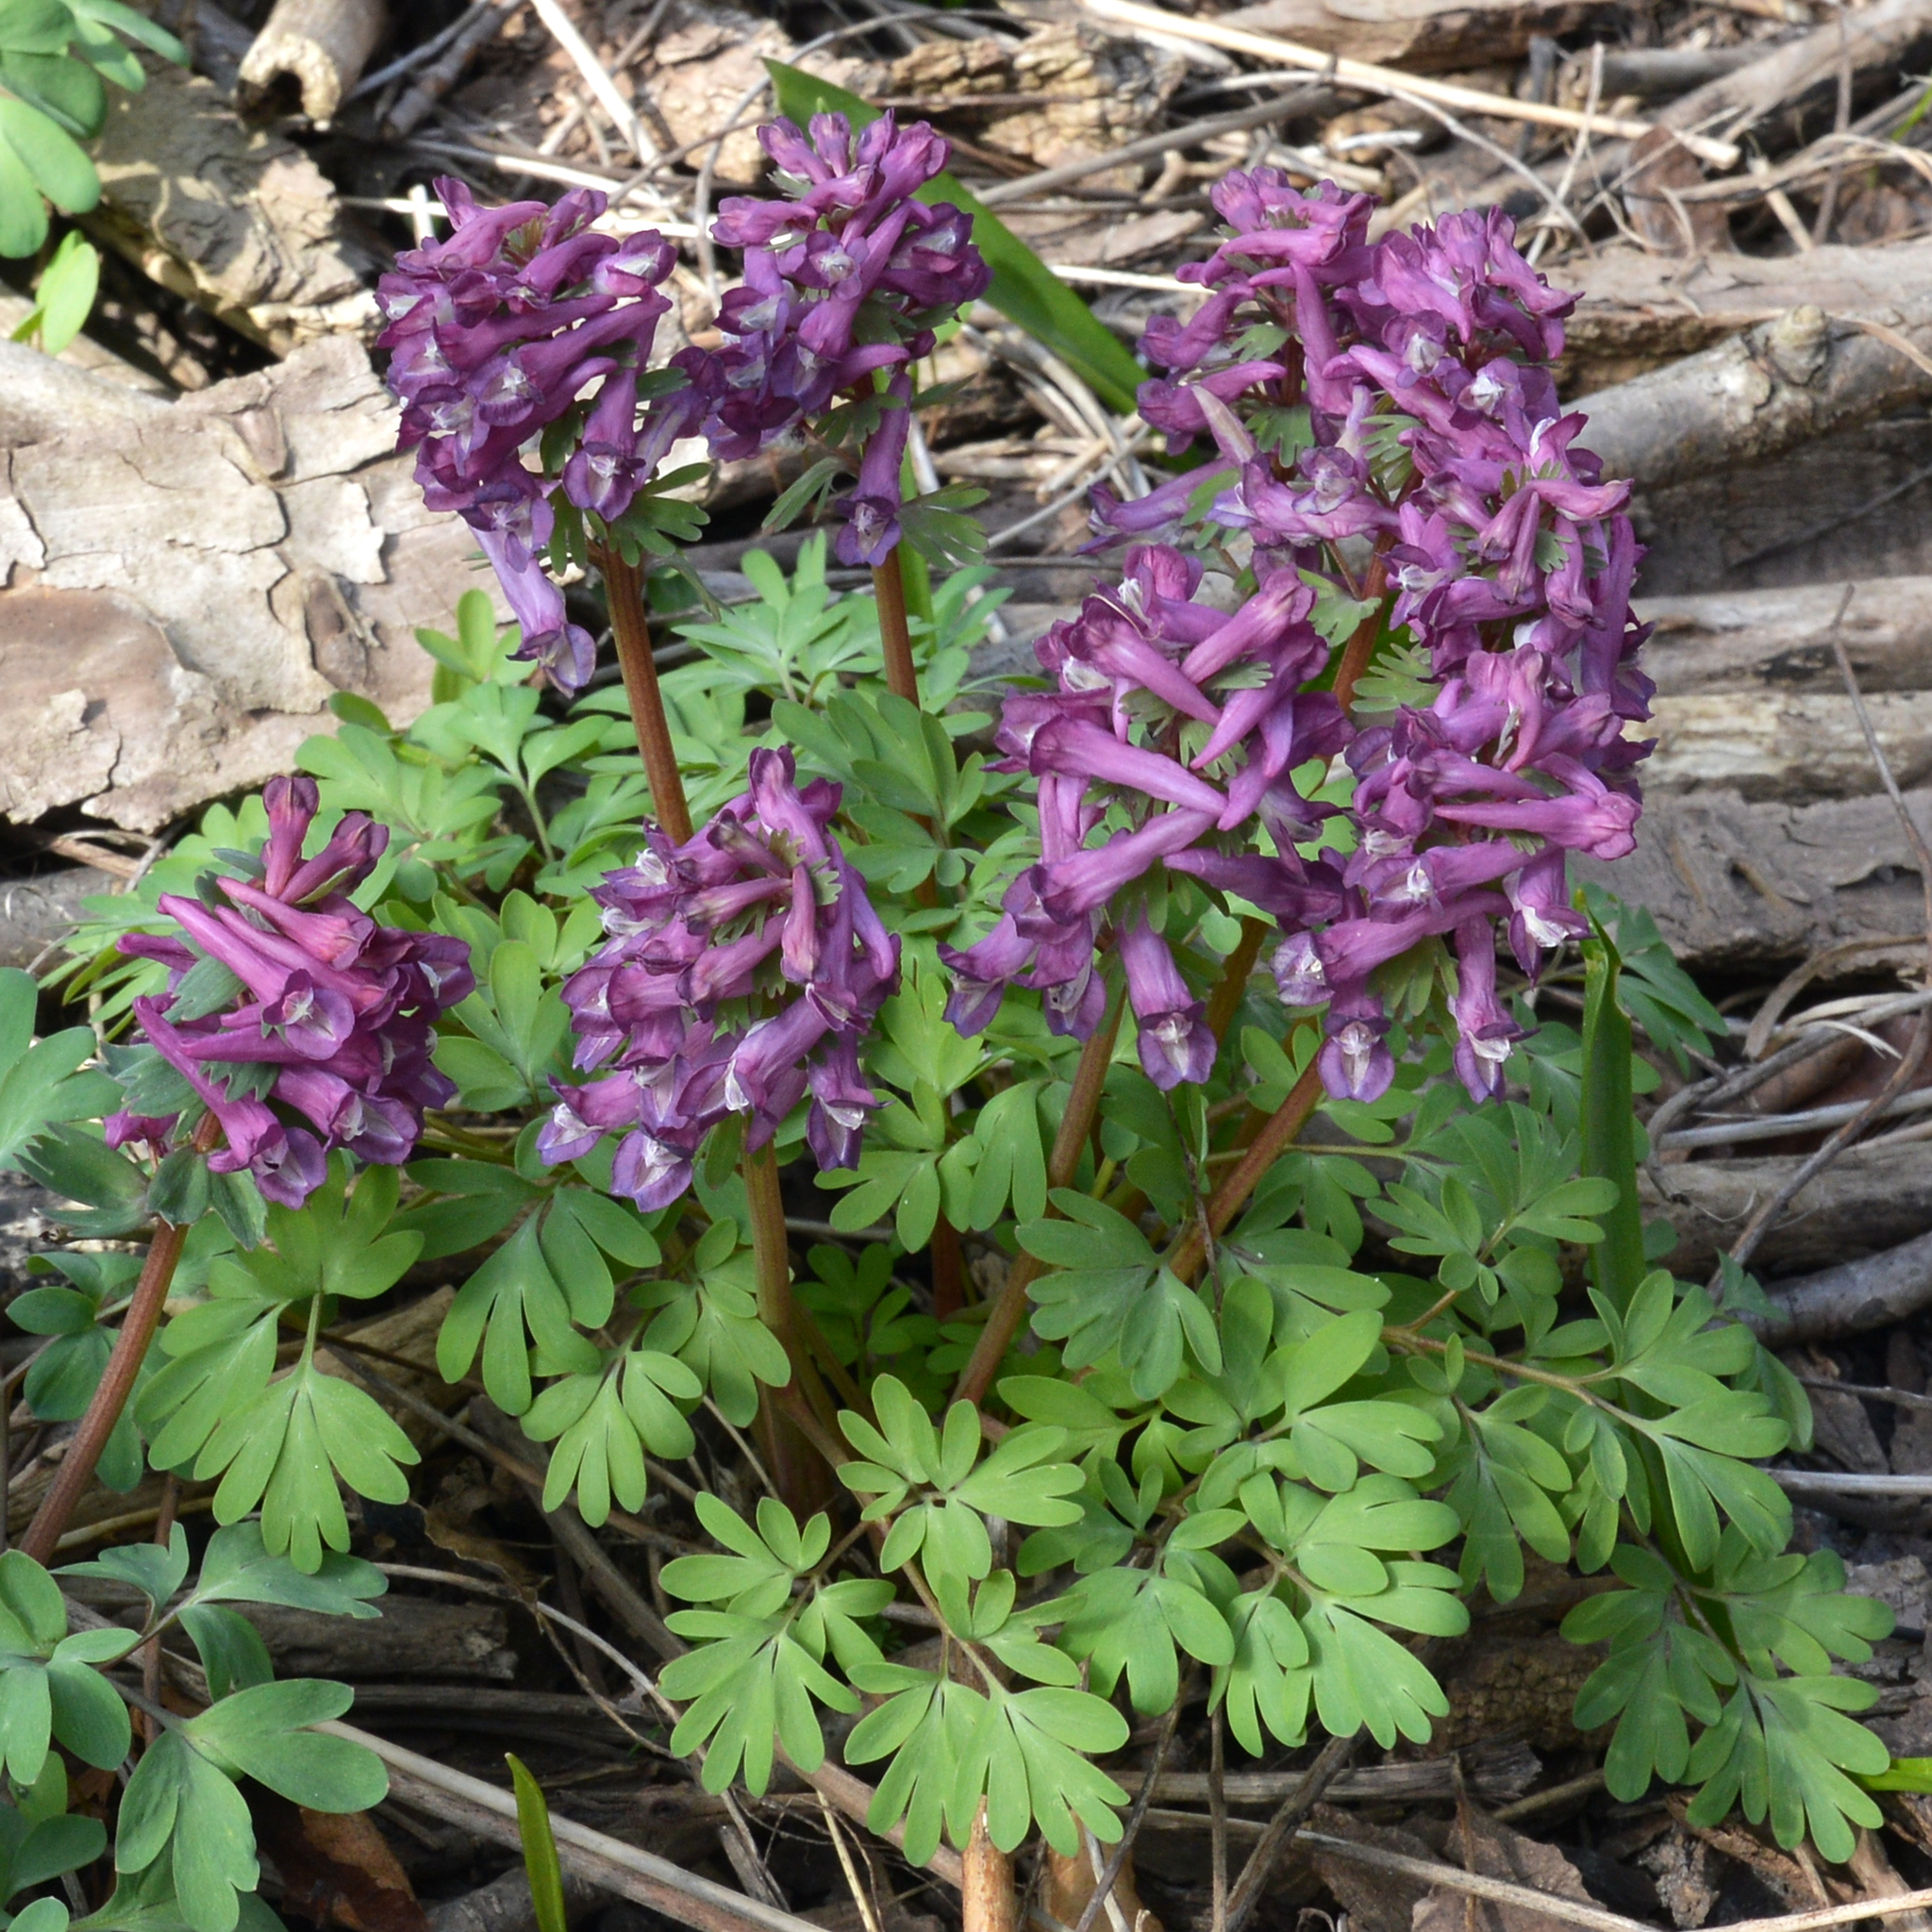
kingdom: Plantae
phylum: Tracheophyta
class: Magnoliopsida
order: Ranunculales
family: Papaveraceae
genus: Corydalis
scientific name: Corydalis solida
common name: Bird-in-a-bush
